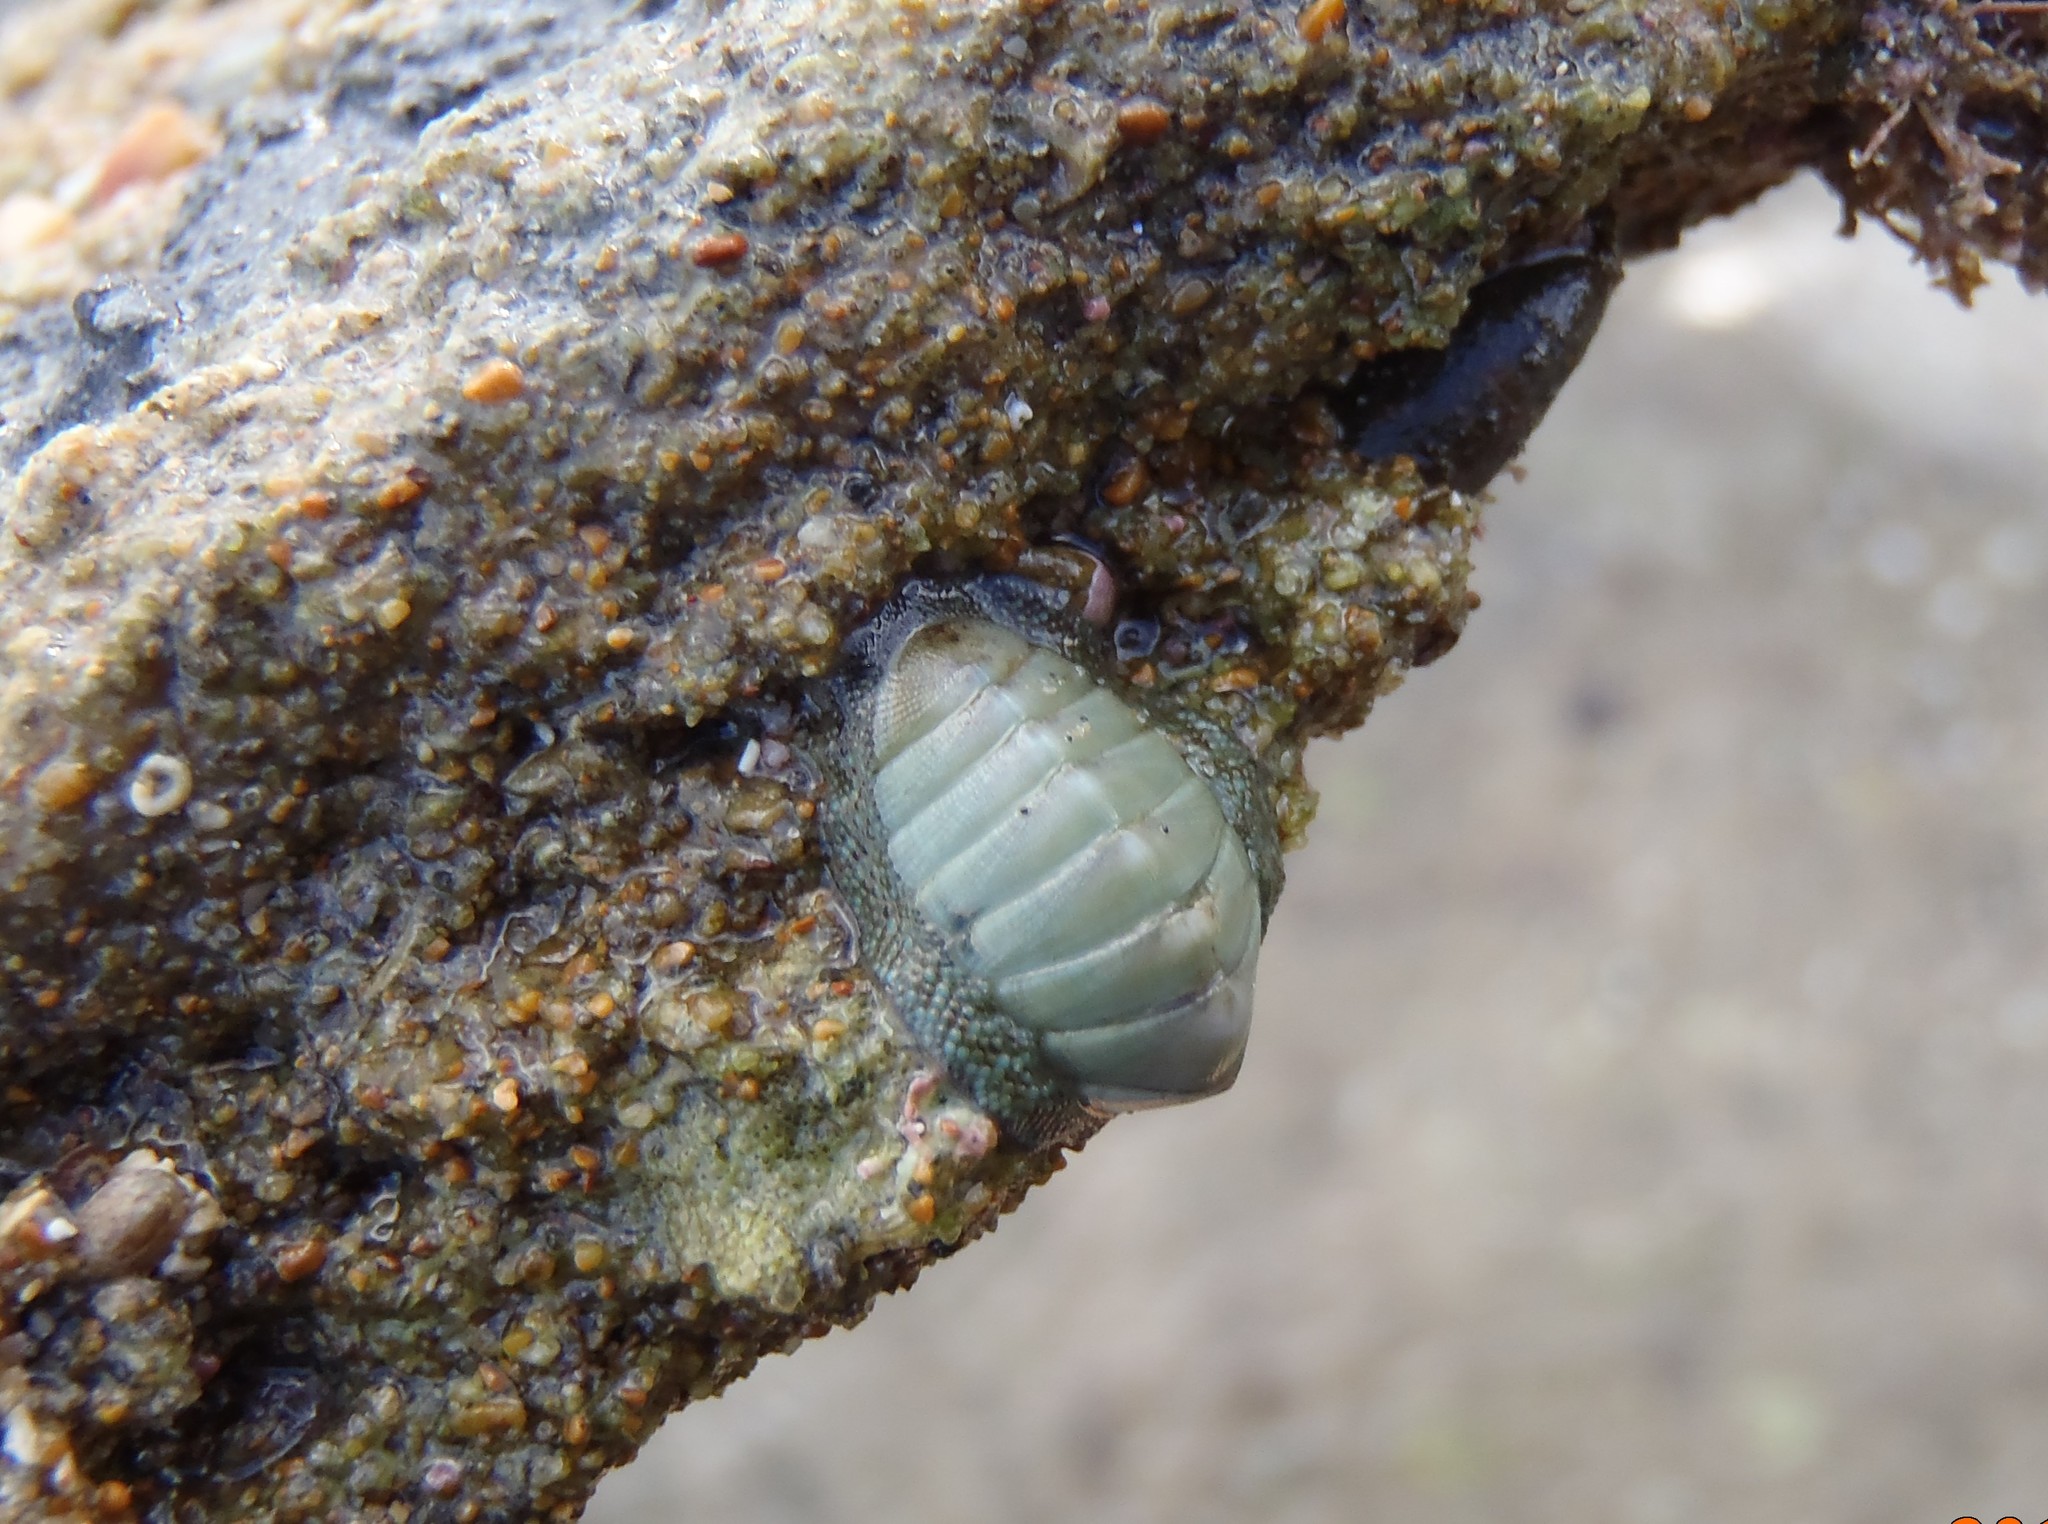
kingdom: Animalia
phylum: Mollusca
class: Polyplacophora
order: Chitonida
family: Chitonidae
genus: Chiton
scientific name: Chiton glaucus
